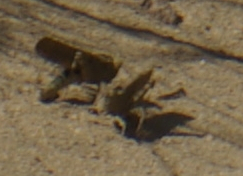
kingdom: Animalia
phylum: Arthropoda
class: Insecta
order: Orthoptera
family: Acrididae
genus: Dissosteira
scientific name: Dissosteira carolina
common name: Carolina grasshopper
